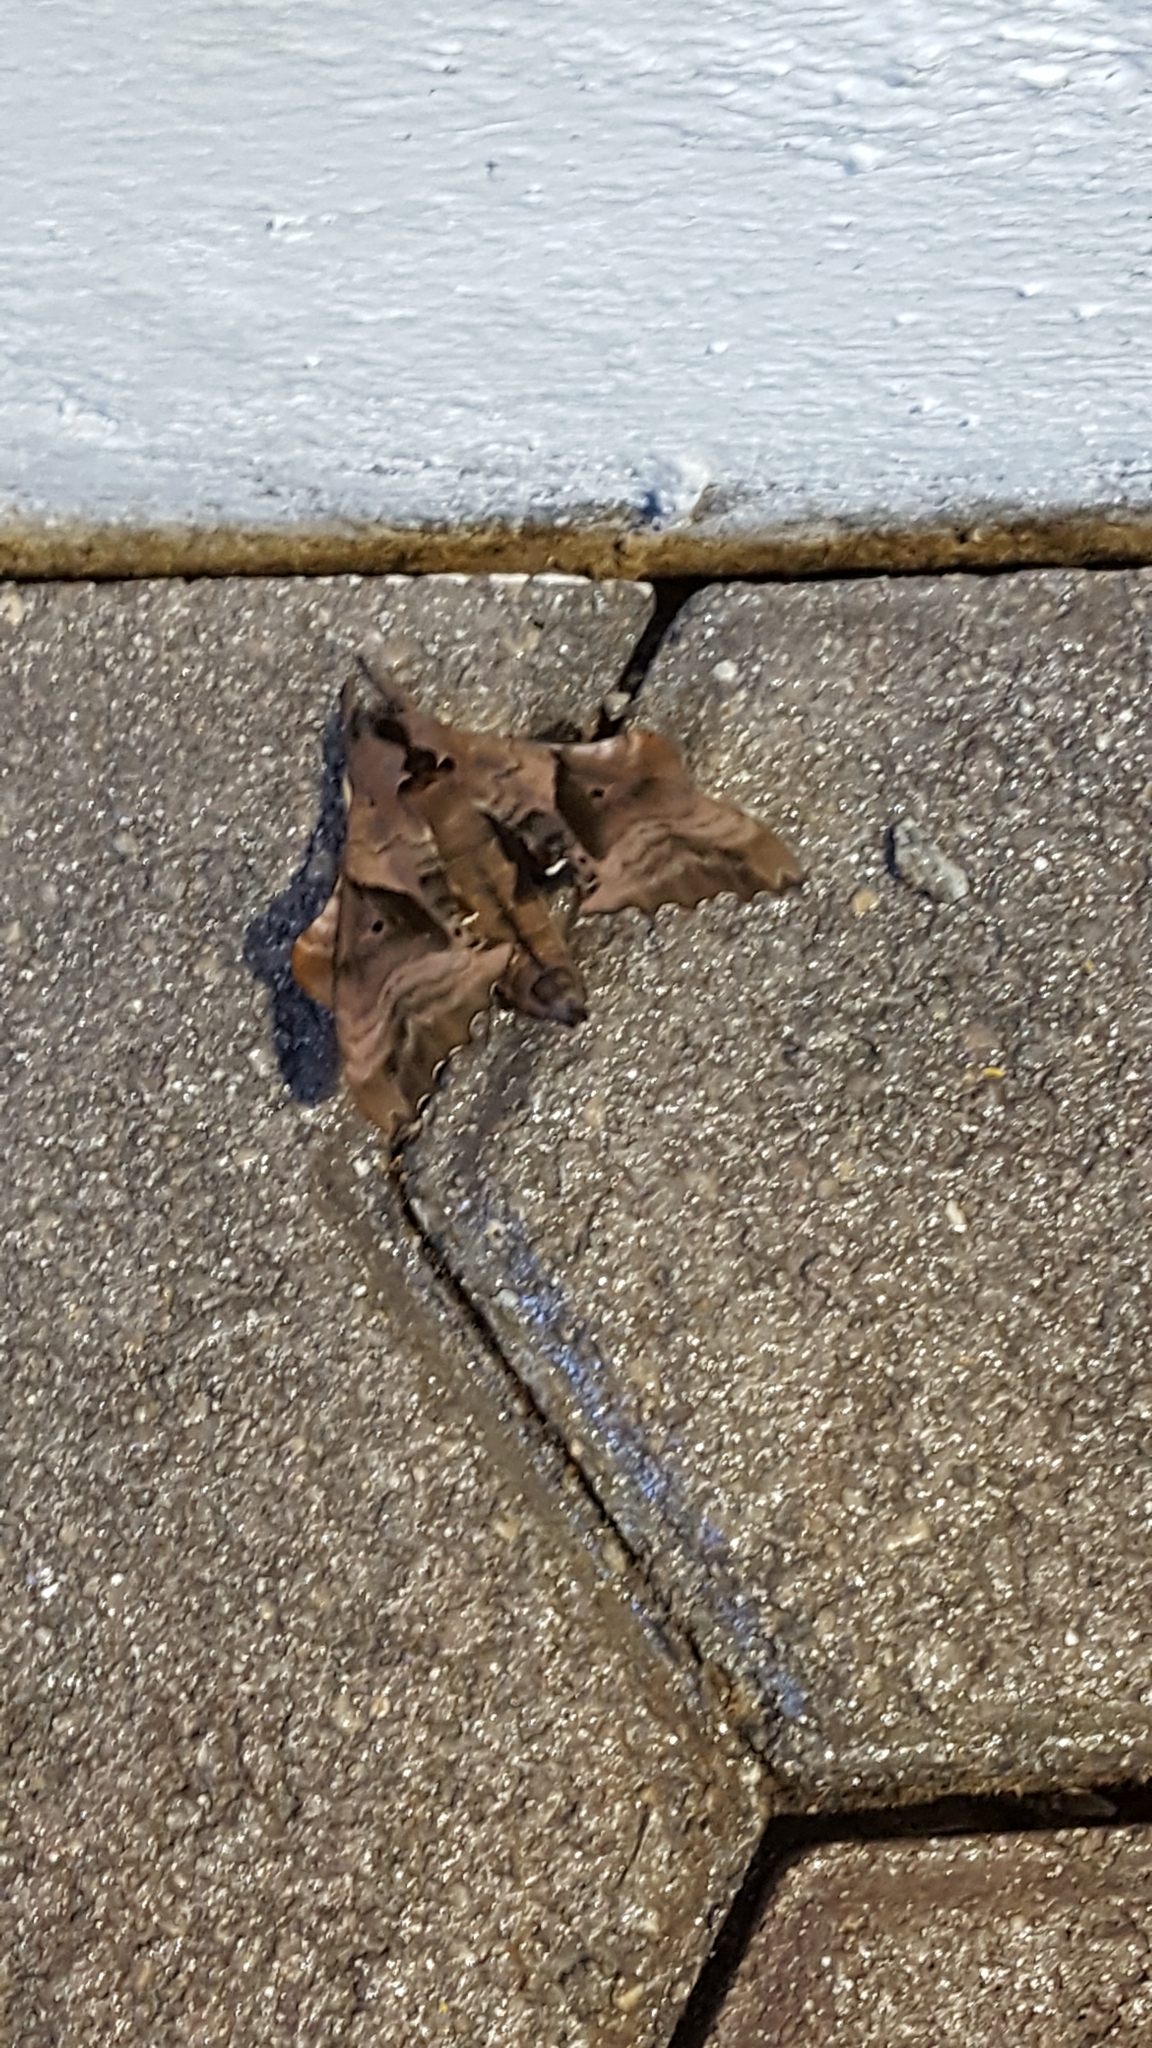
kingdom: Animalia
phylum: Arthropoda
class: Insecta
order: Lepidoptera
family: Sphingidae
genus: Paonias
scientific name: Paonias excaecata
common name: Blind-eyed sphinx
